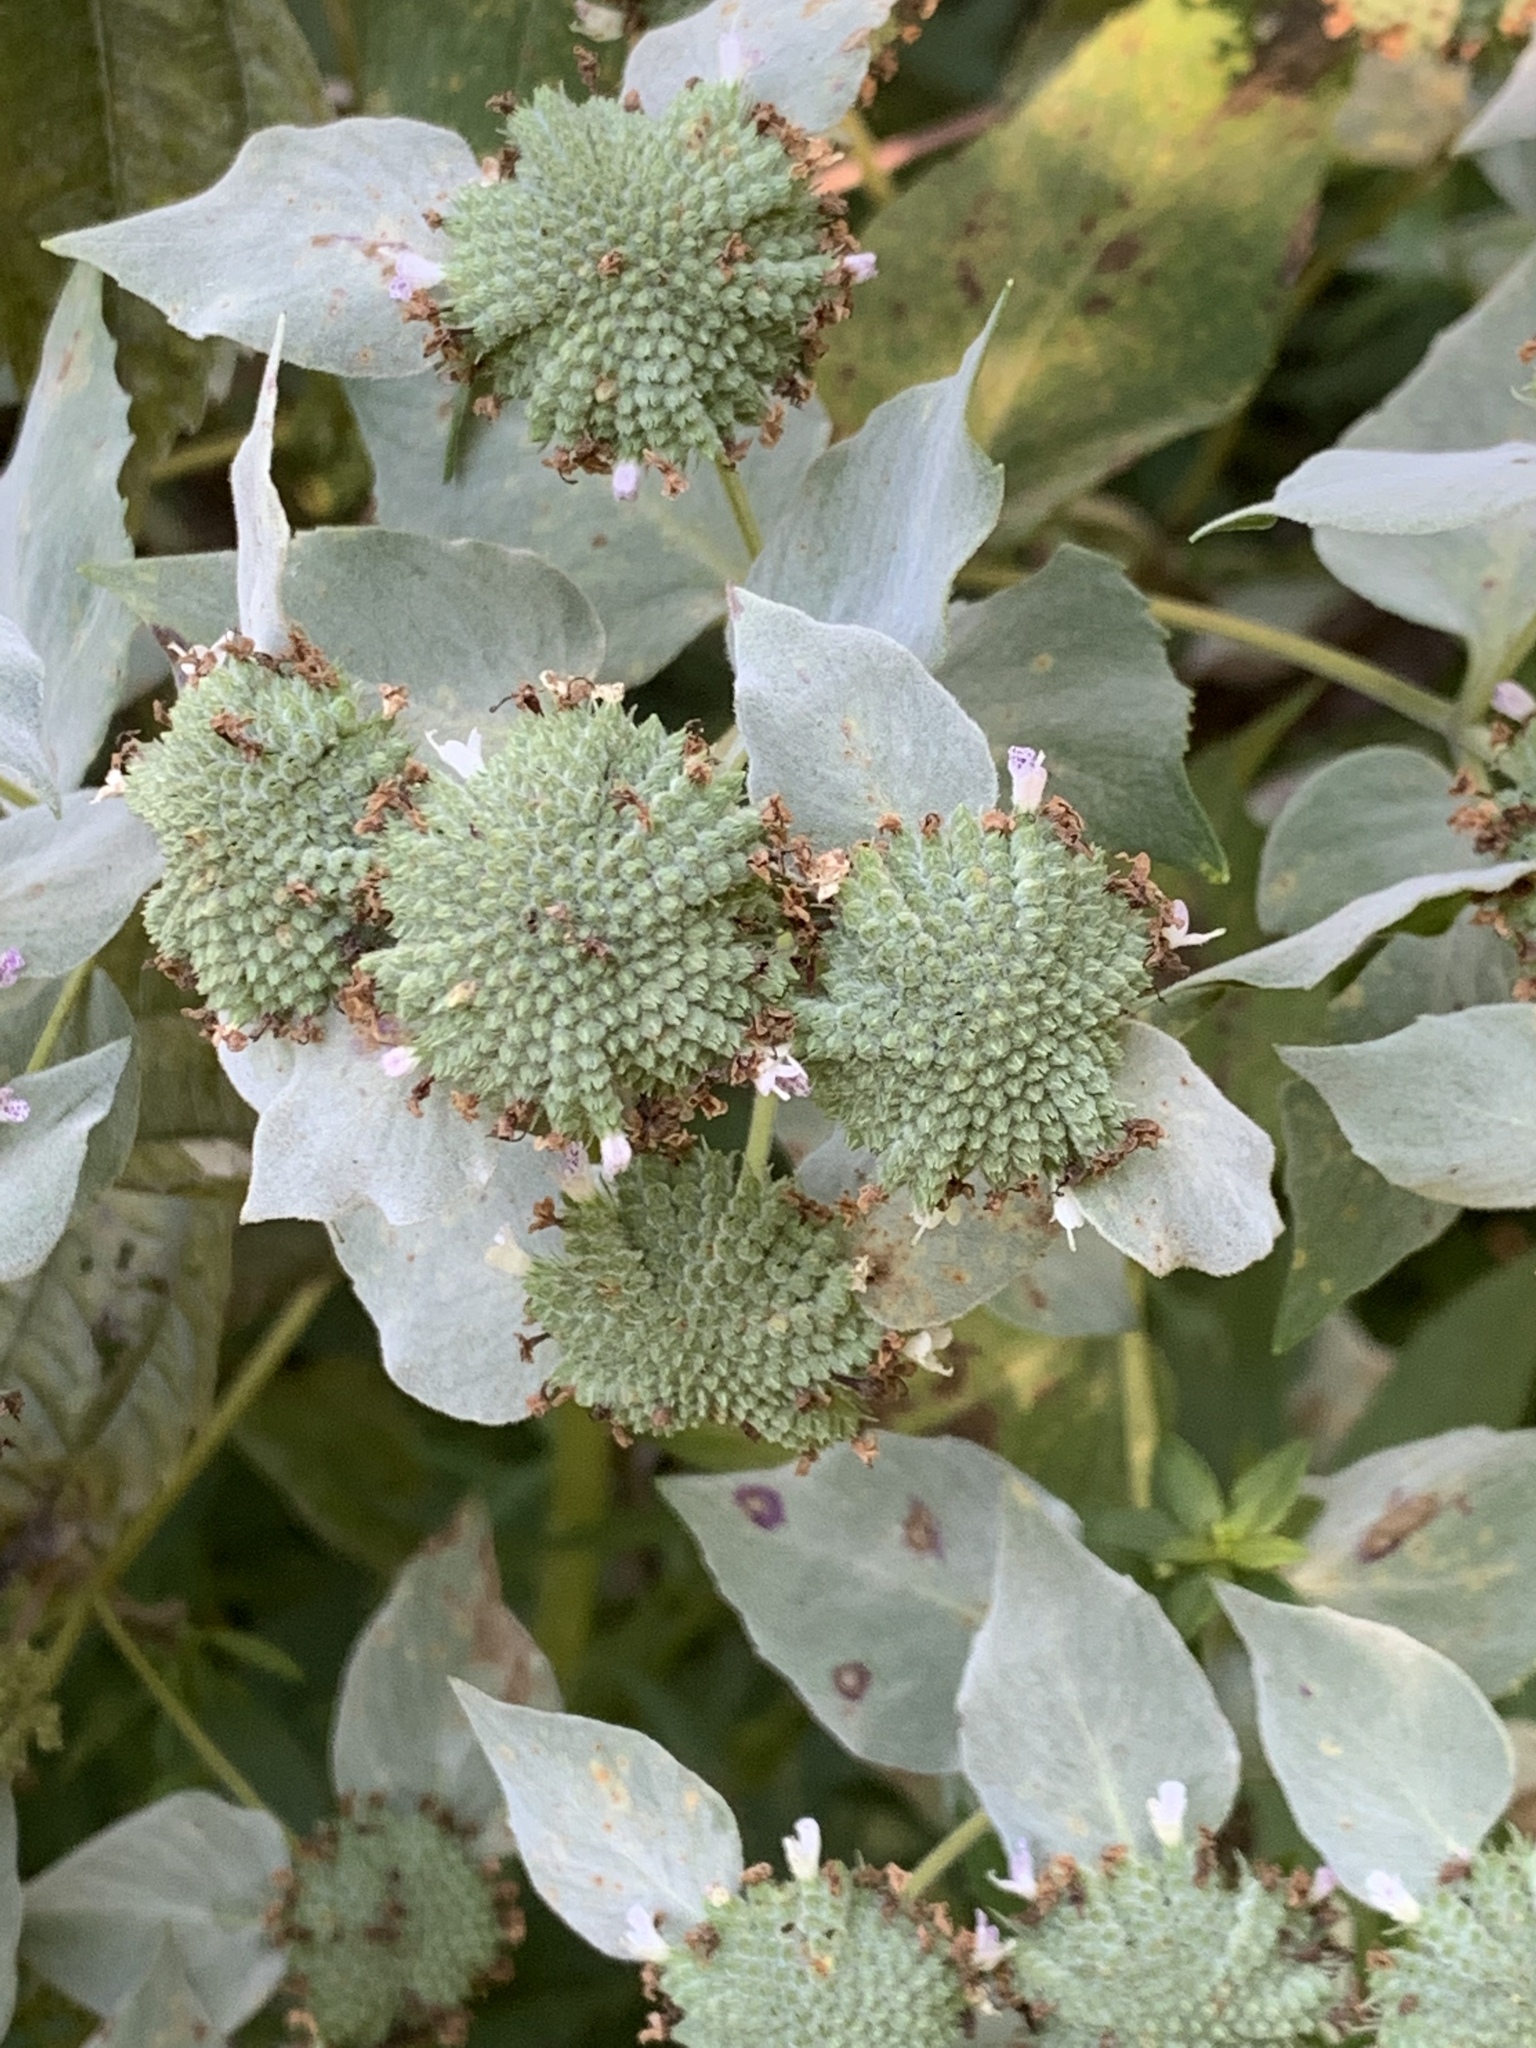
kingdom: Plantae
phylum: Tracheophyta
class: Magnoliopsida
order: Lamiales
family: Lamiaceae
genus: Pycnanthemum
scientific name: Pycnanthemum muticum
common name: Blunt mountain-mint
